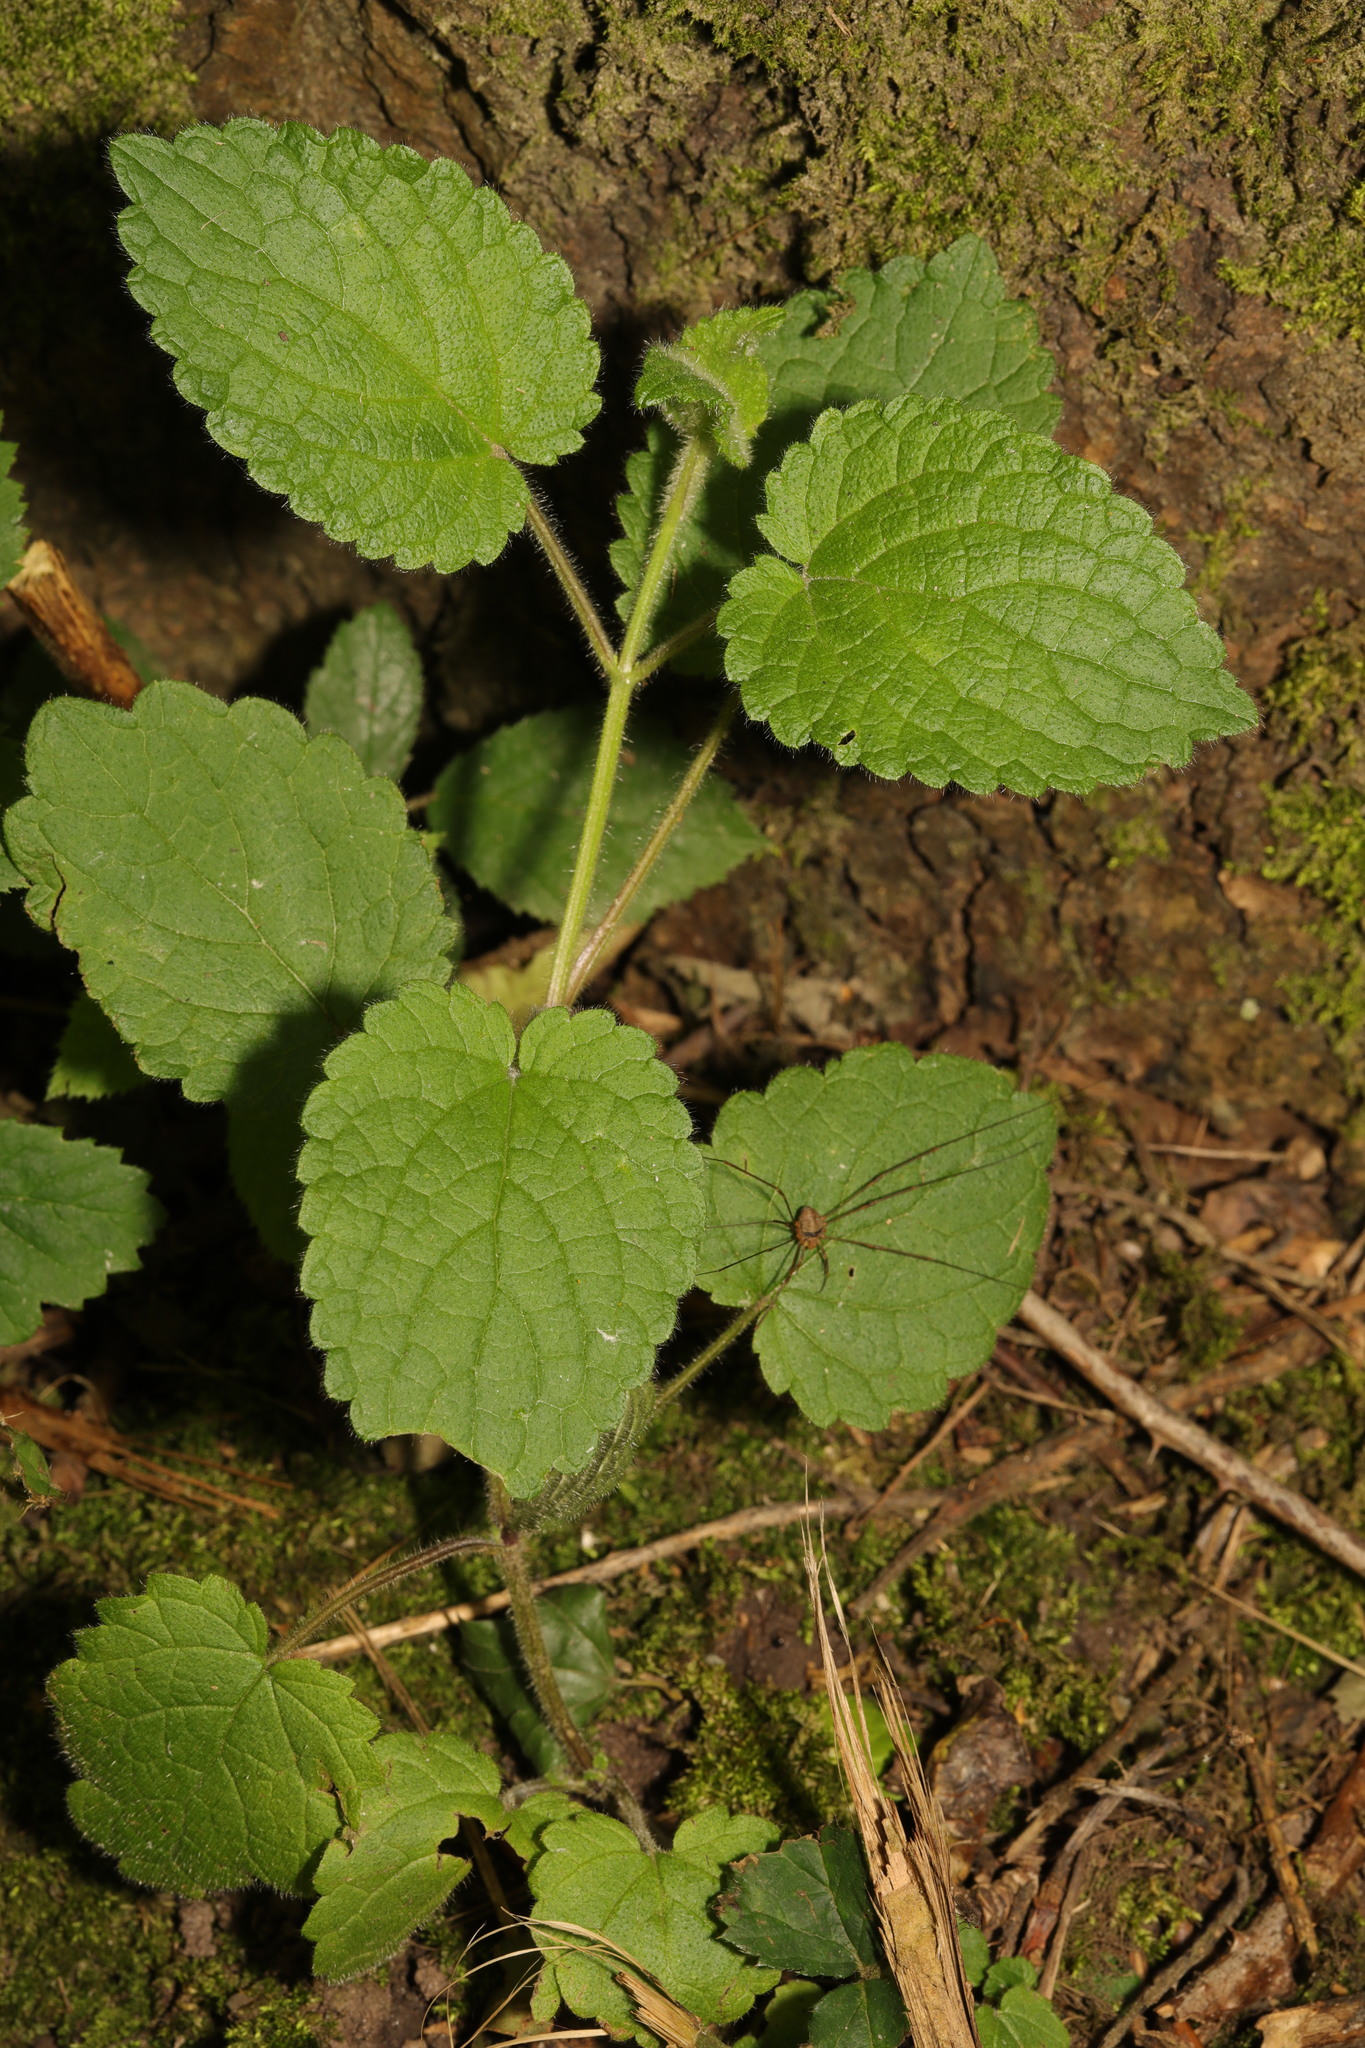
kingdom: Plantae
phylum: Tracheophyta
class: Magnoliopsida
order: Lamiales
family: Lamiaceae
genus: Stachys
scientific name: Stachys sylvatica
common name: Hedge woundwort
